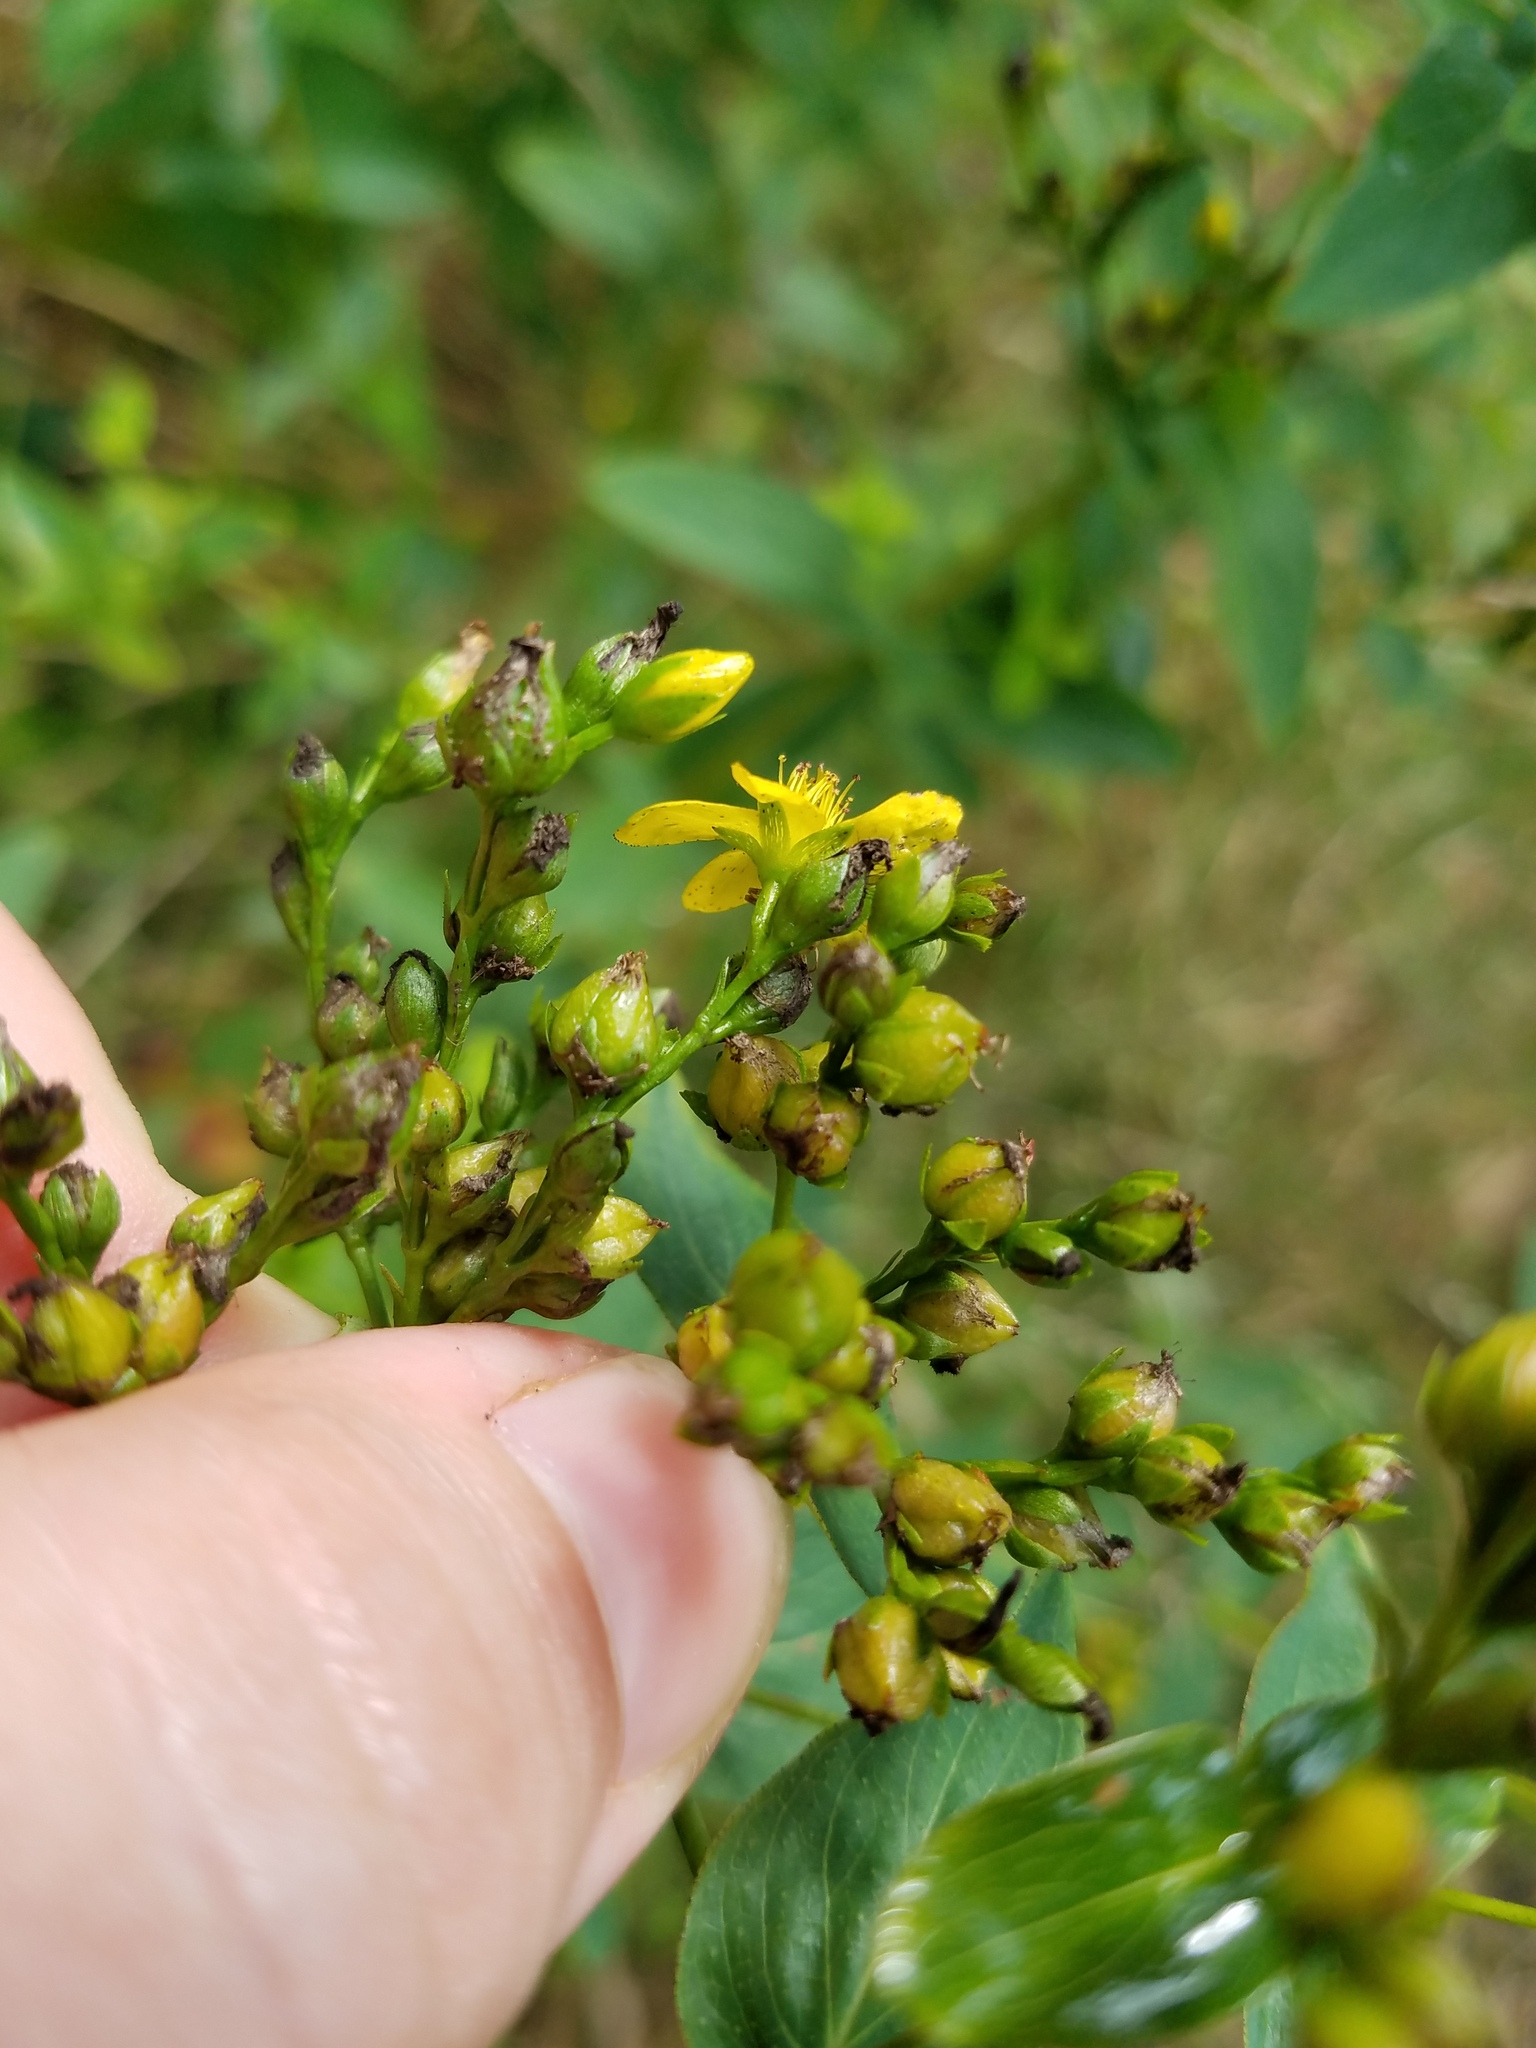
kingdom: Plantae
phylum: Tracheophyta
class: Magnoliopsida
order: Malpighiales
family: Hypericaceae
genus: Hypericum
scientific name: Hypericum punctatum
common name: Spotted st. john's-wort
